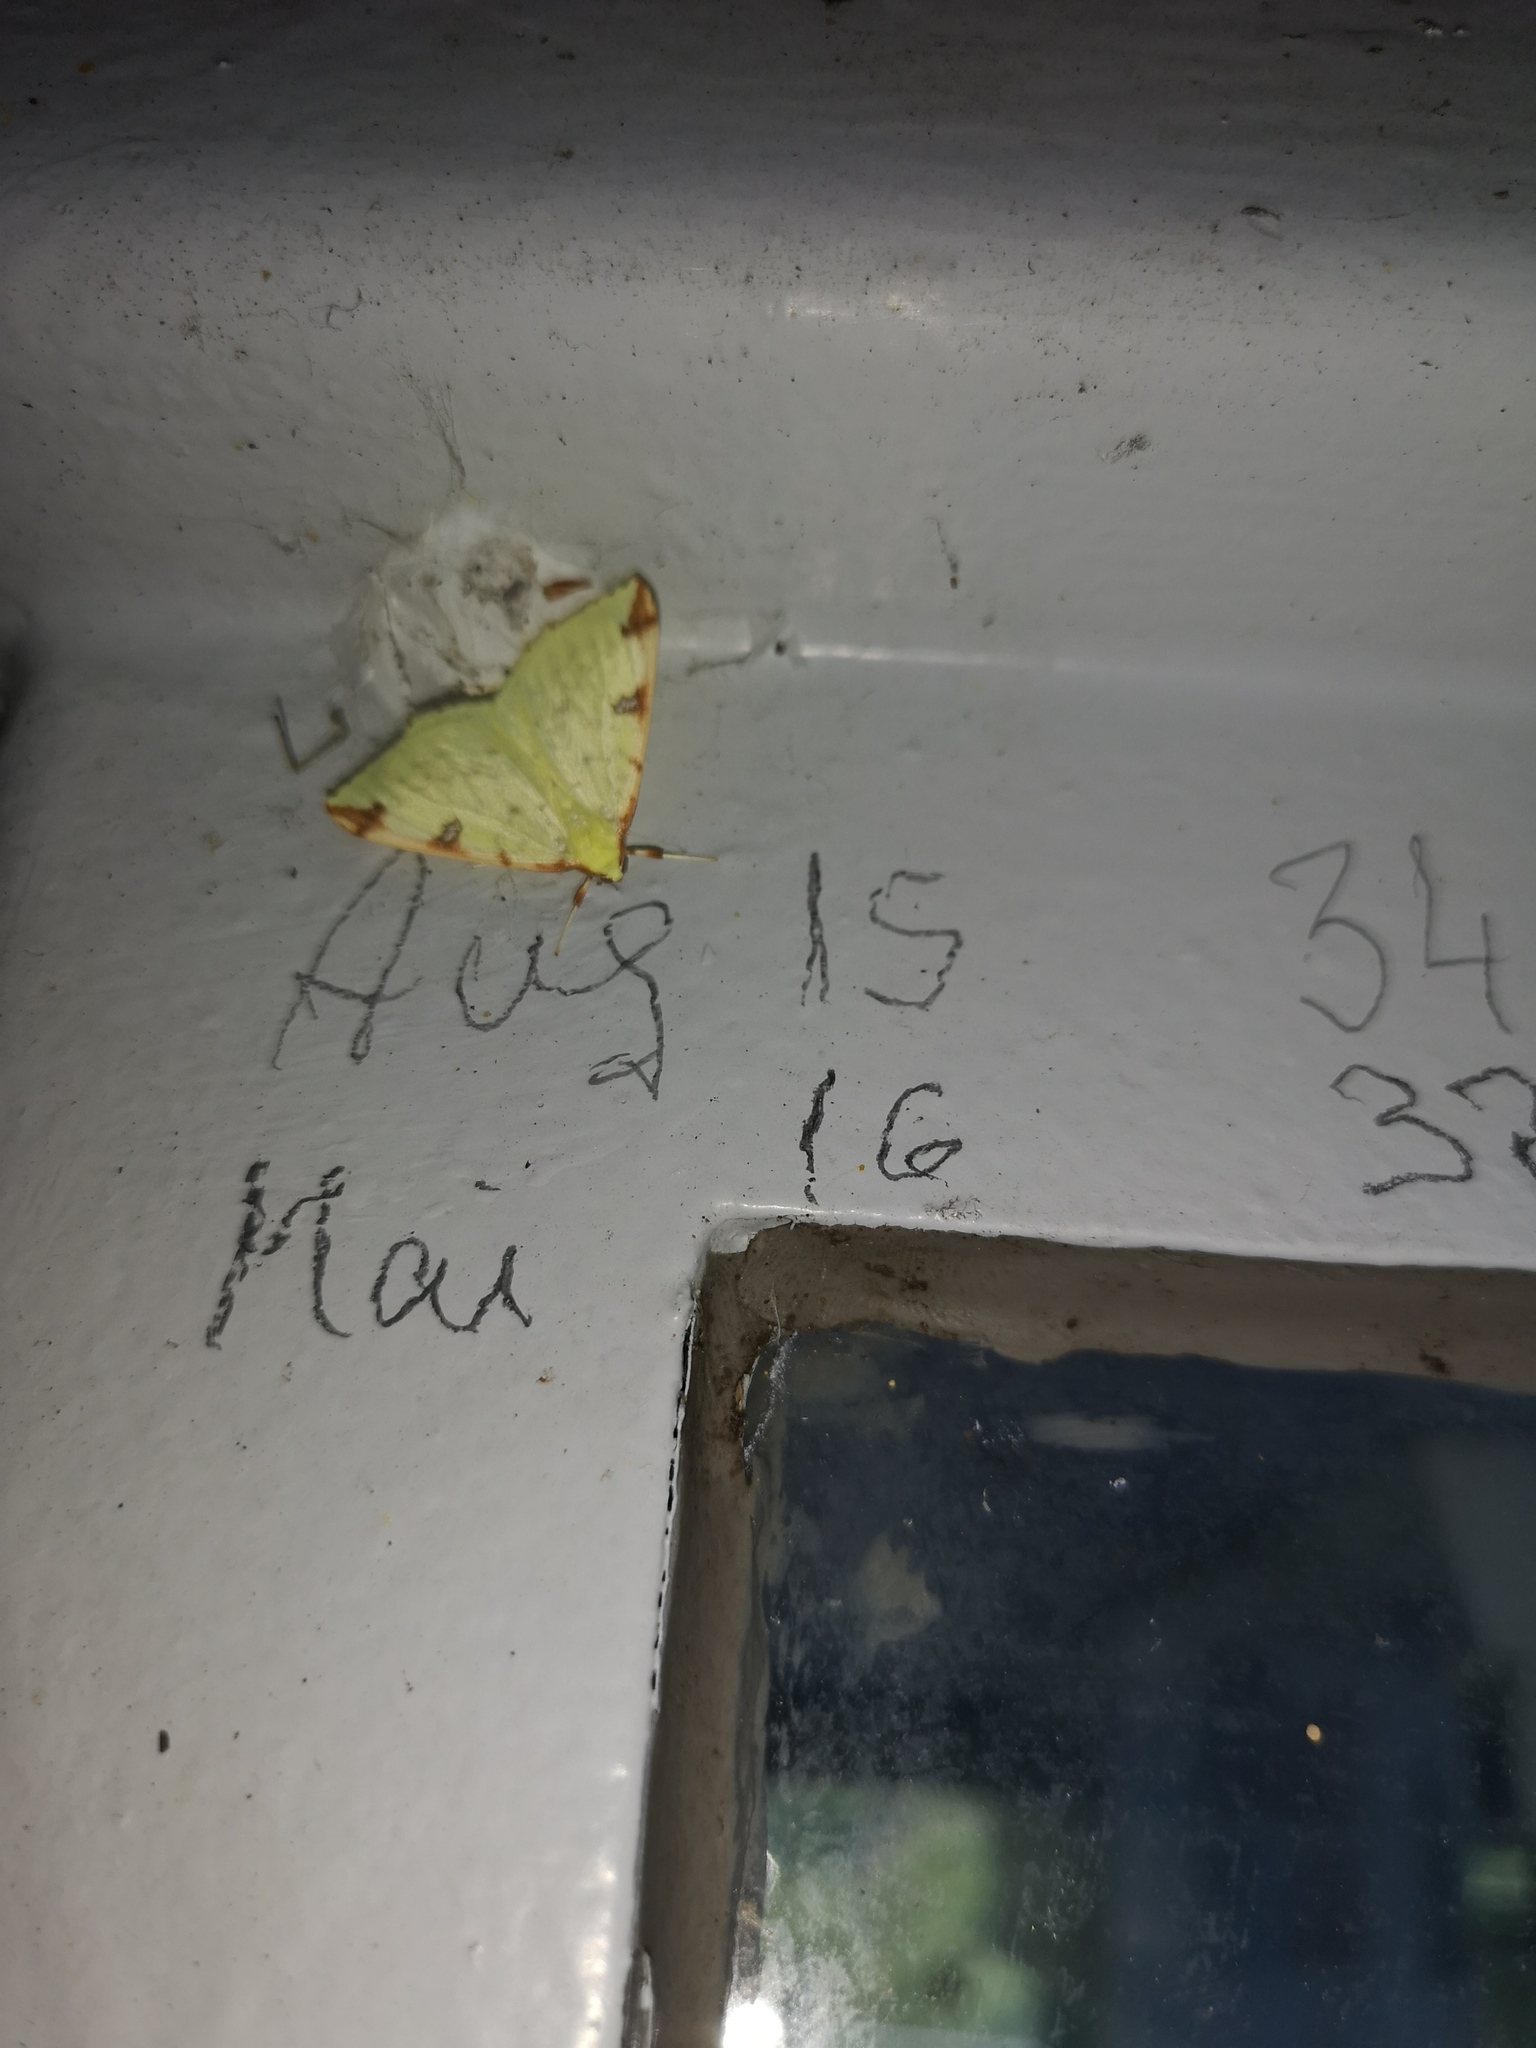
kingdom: Animalia
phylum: Arthropoda
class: Insecta
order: Lepidoptera
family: Geometridae
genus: Opisthograptis
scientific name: Opisthograptis luteolata
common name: Brimstone moth
